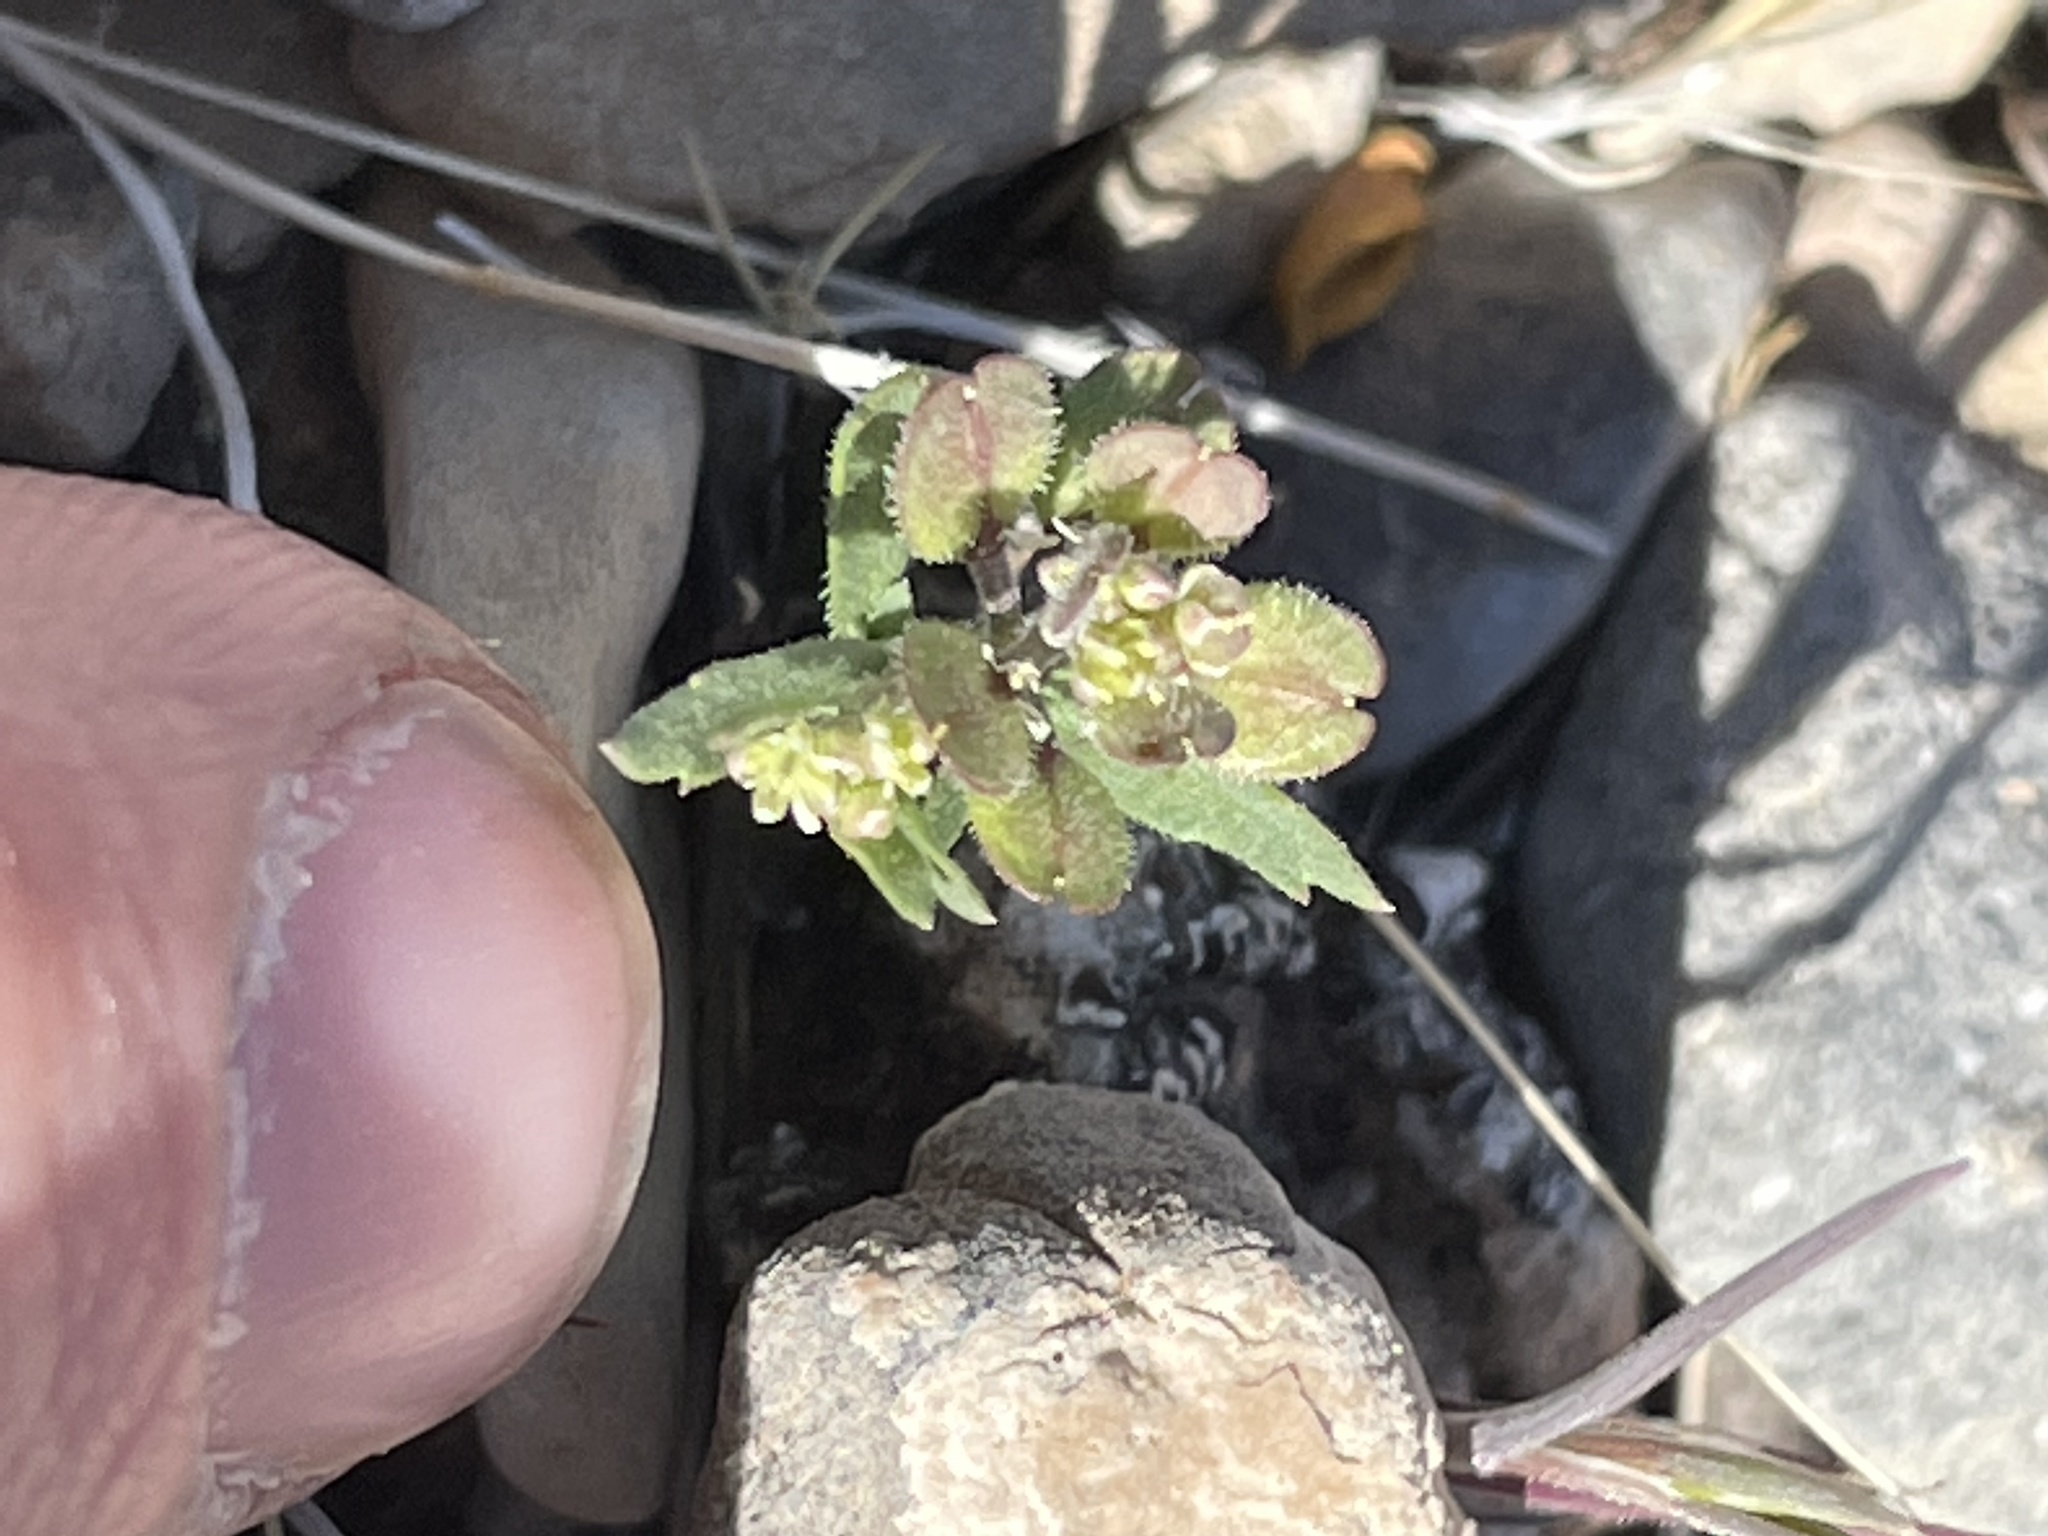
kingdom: Plantae
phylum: Tracheophyta
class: Magnoliopsida
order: Brassicales
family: Brassicaceae
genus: Lepidium
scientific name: Lepidium lasiocarpum
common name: Hairy-pod pepperwort
